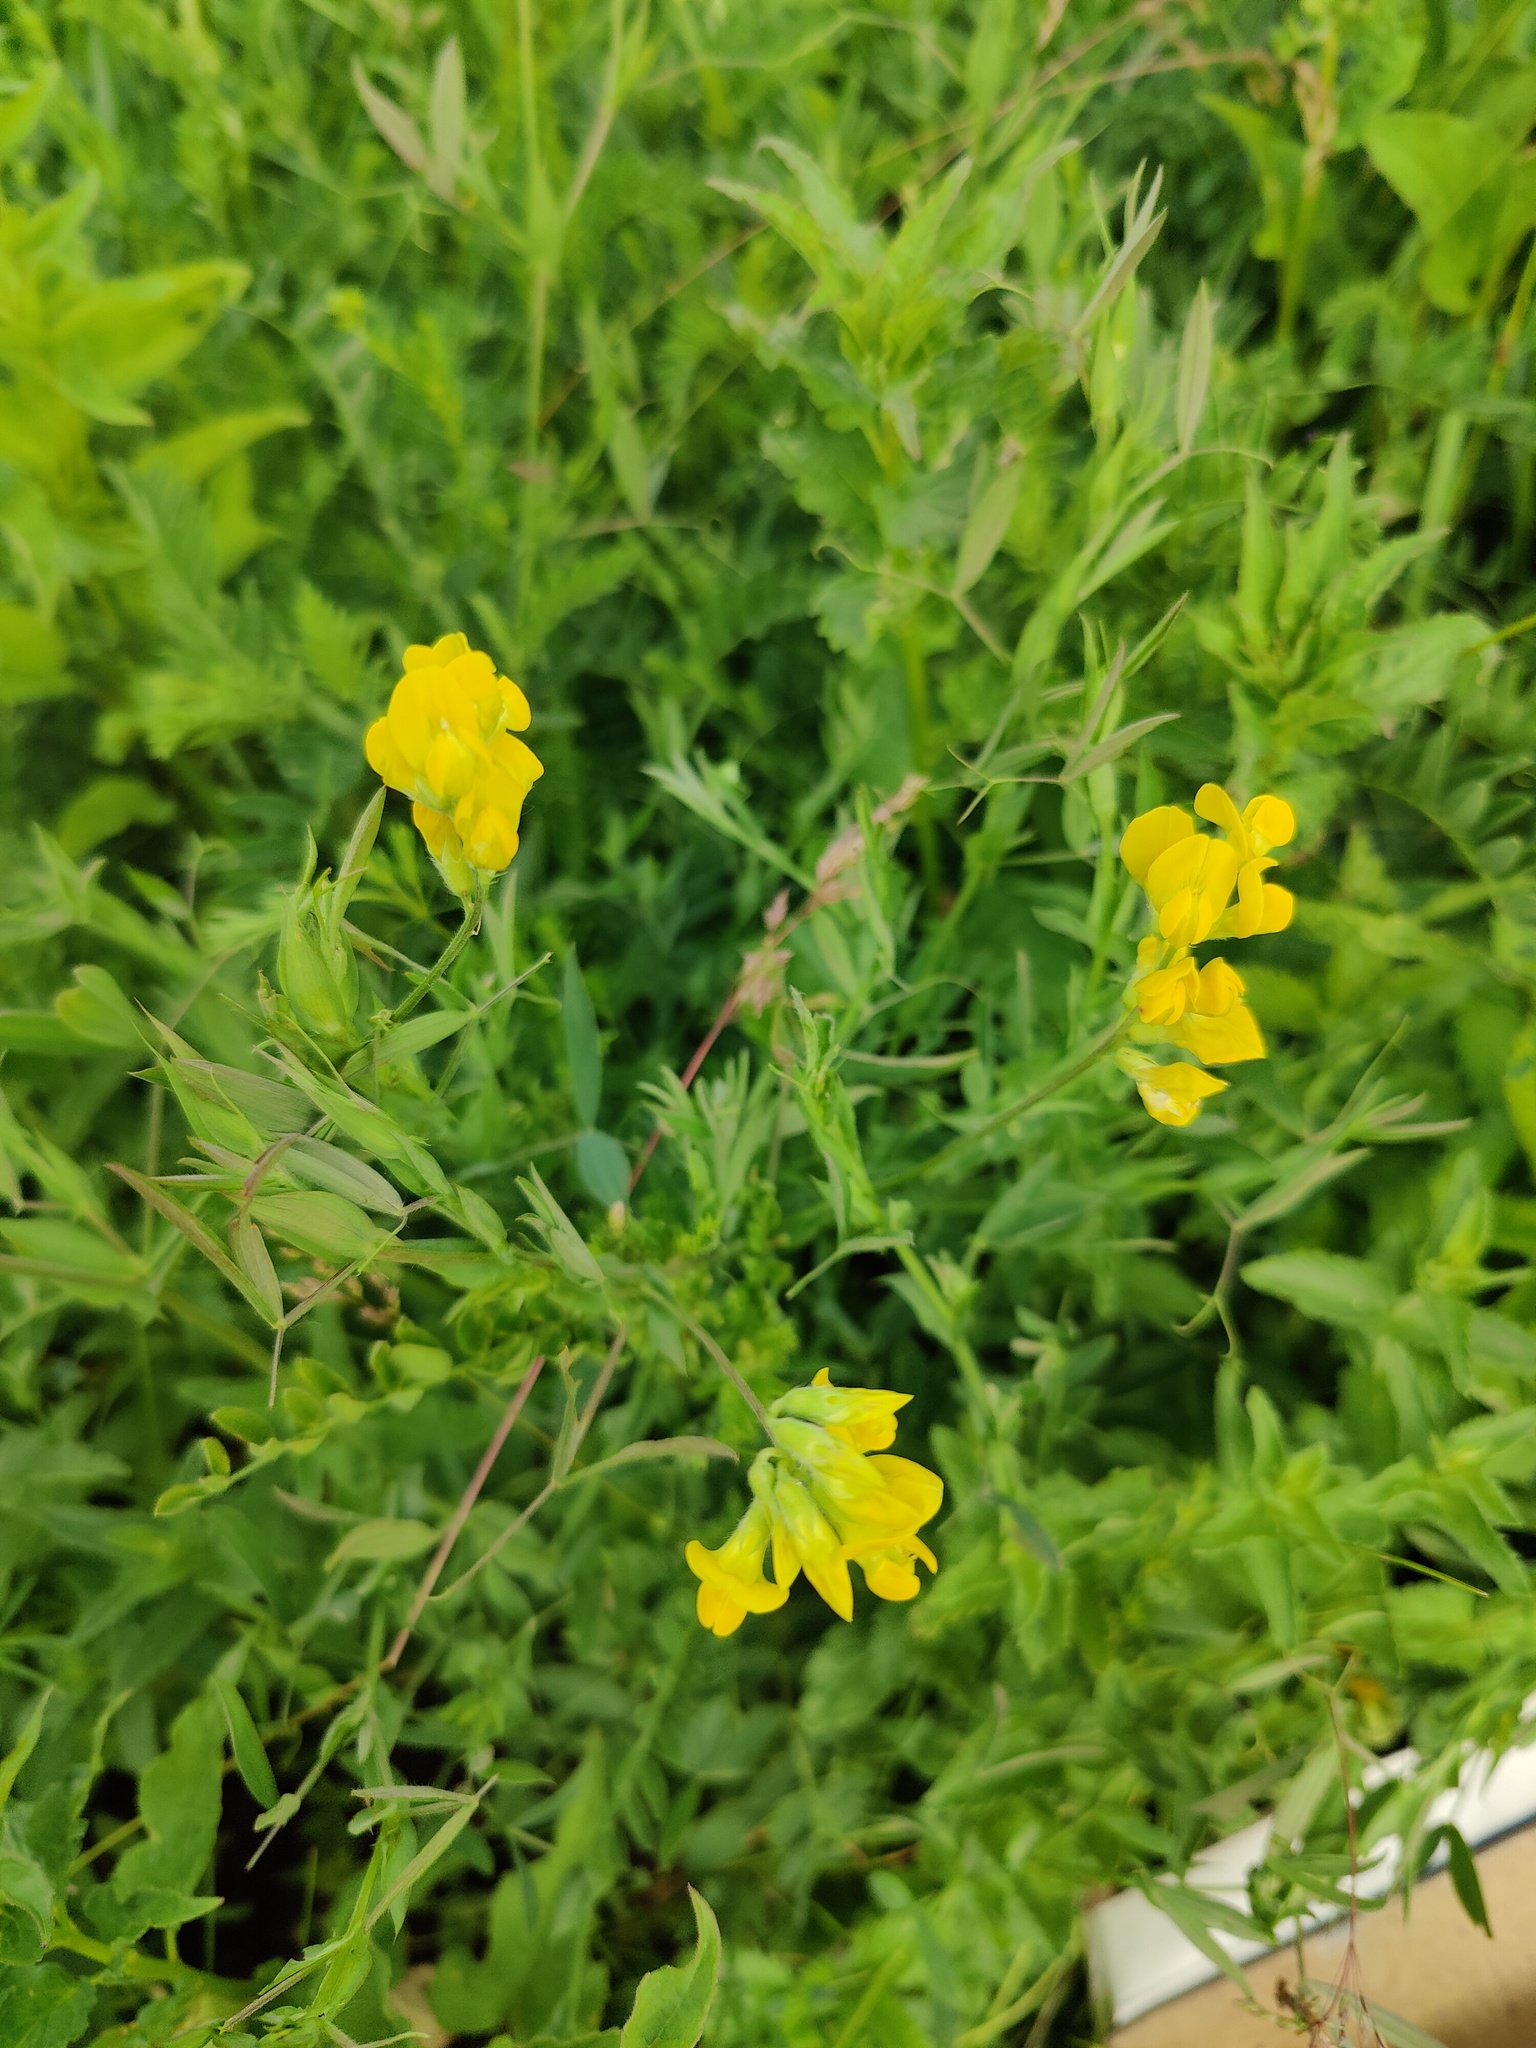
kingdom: Plantae
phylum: Tracheophyta
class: Magnoliopsida
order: Fabales
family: Fabaceae
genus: Lathyrus
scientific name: Lathyrus pratensis
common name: Meadow vetchling
